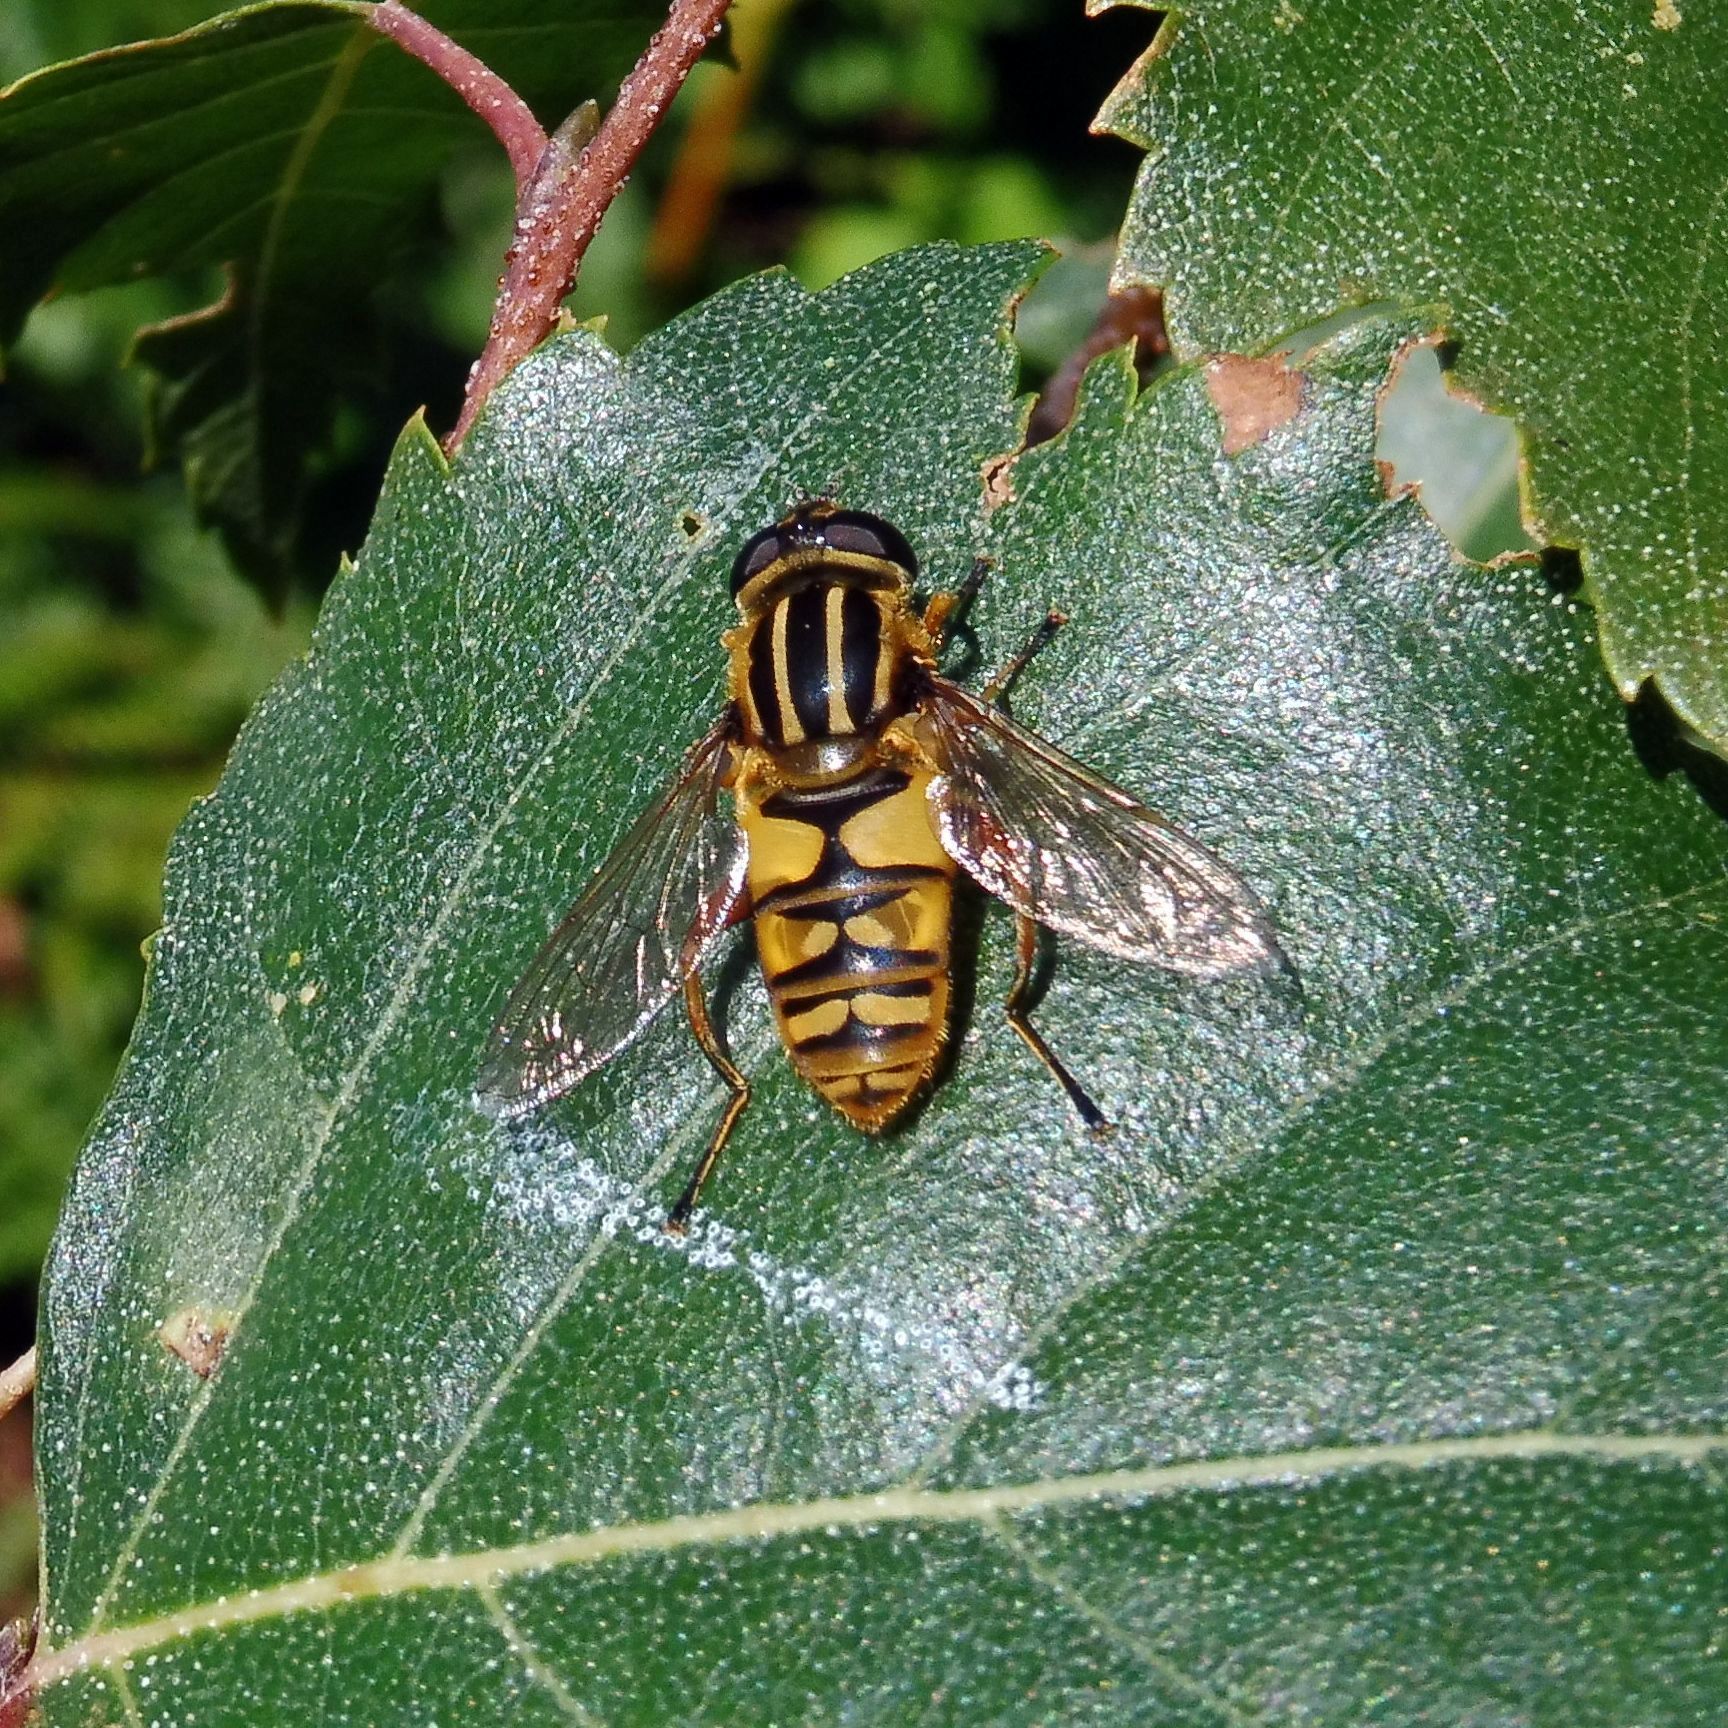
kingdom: Animalia
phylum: Arthropoda
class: Insecta
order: Diptera
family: Syrphidae
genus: Helophilus
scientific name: Helophilus pendulus
